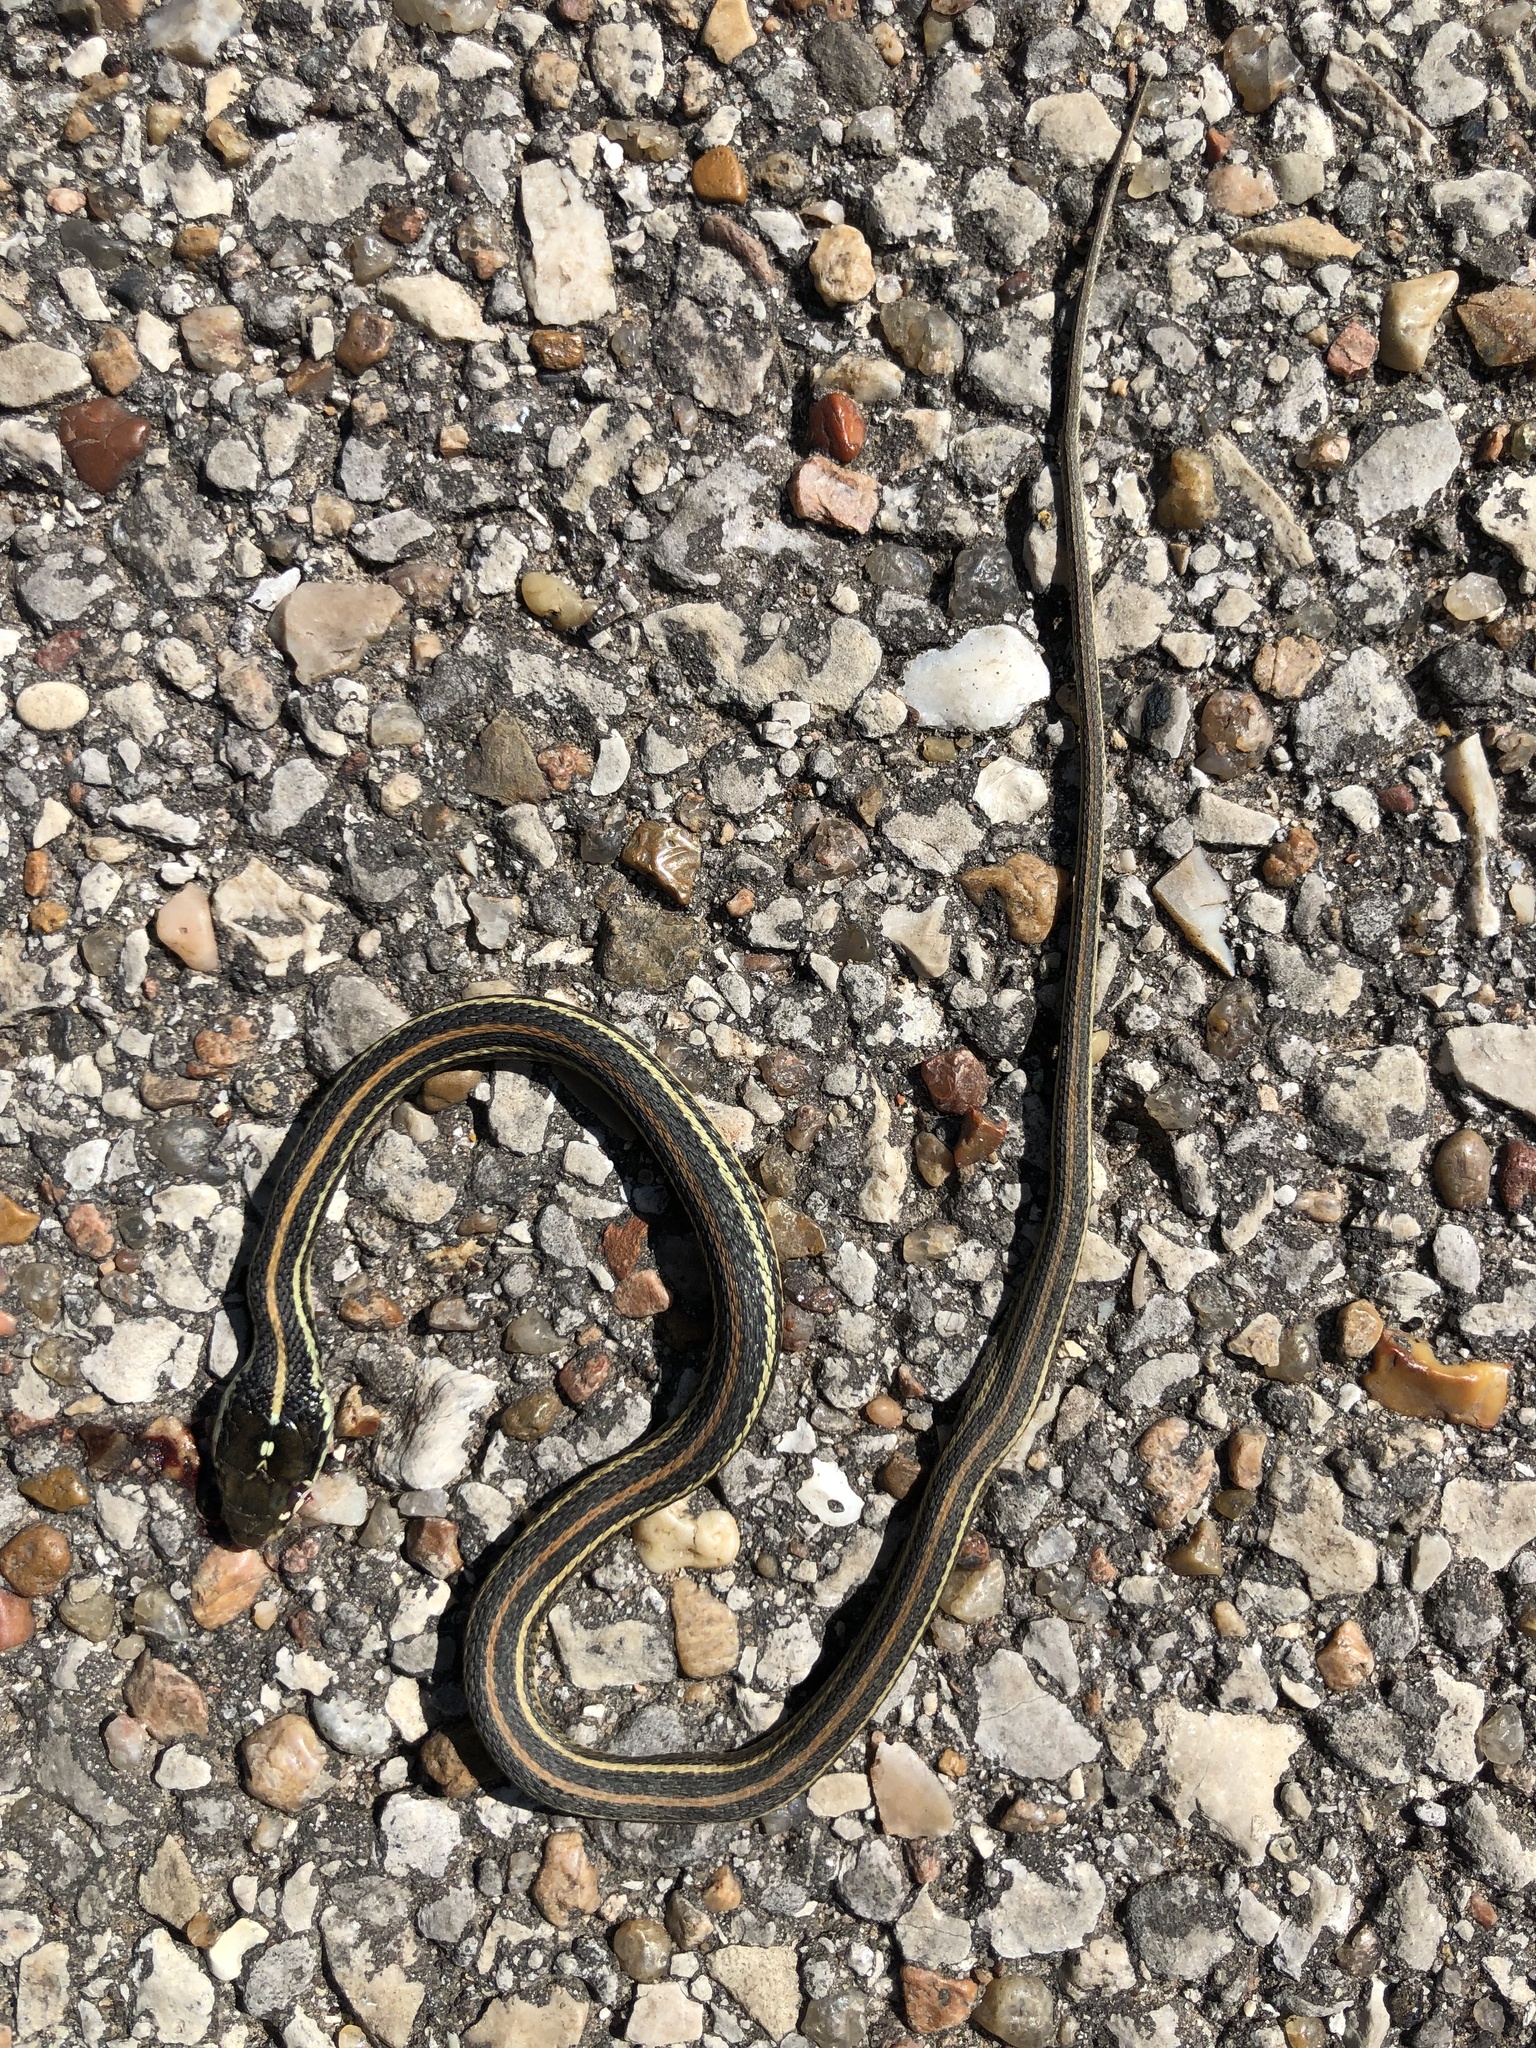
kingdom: Animalia
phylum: Chordata
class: Squamata
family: Colubridae
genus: Thamnophis
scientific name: Thamnophis proximus
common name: Western ribbon snake
